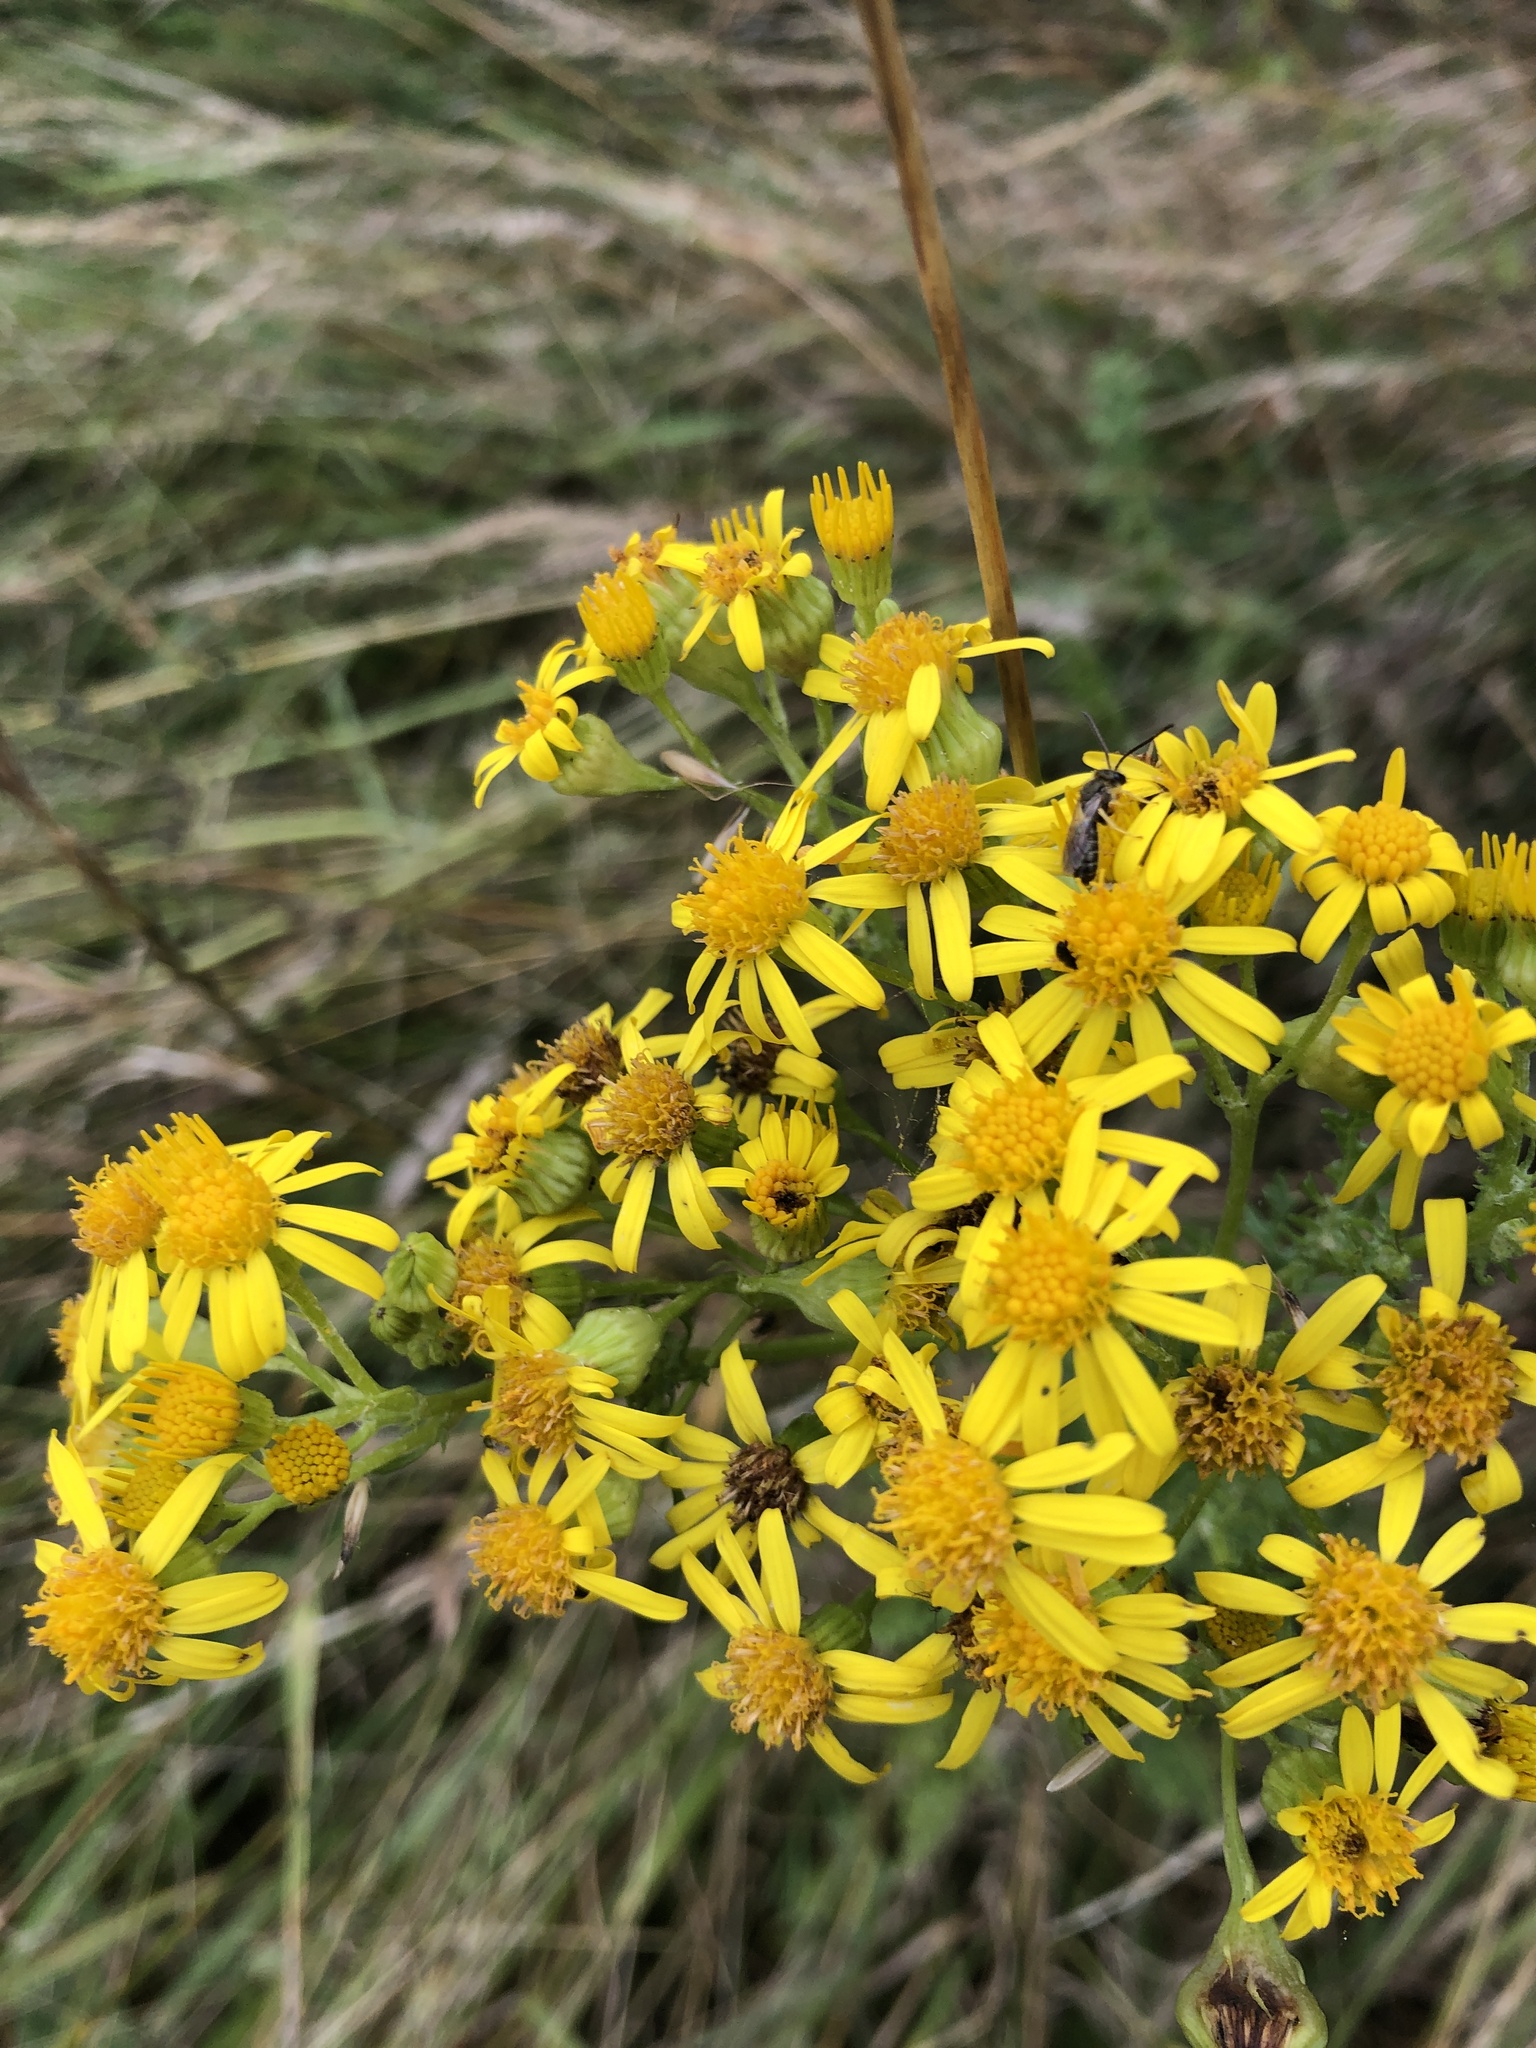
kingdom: Plantae
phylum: Tracheophyta
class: Magnoliopsida
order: Asterales
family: Asteraceae
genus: Jacobaea
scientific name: Jacobaea vulgaris
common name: Stinking willie
